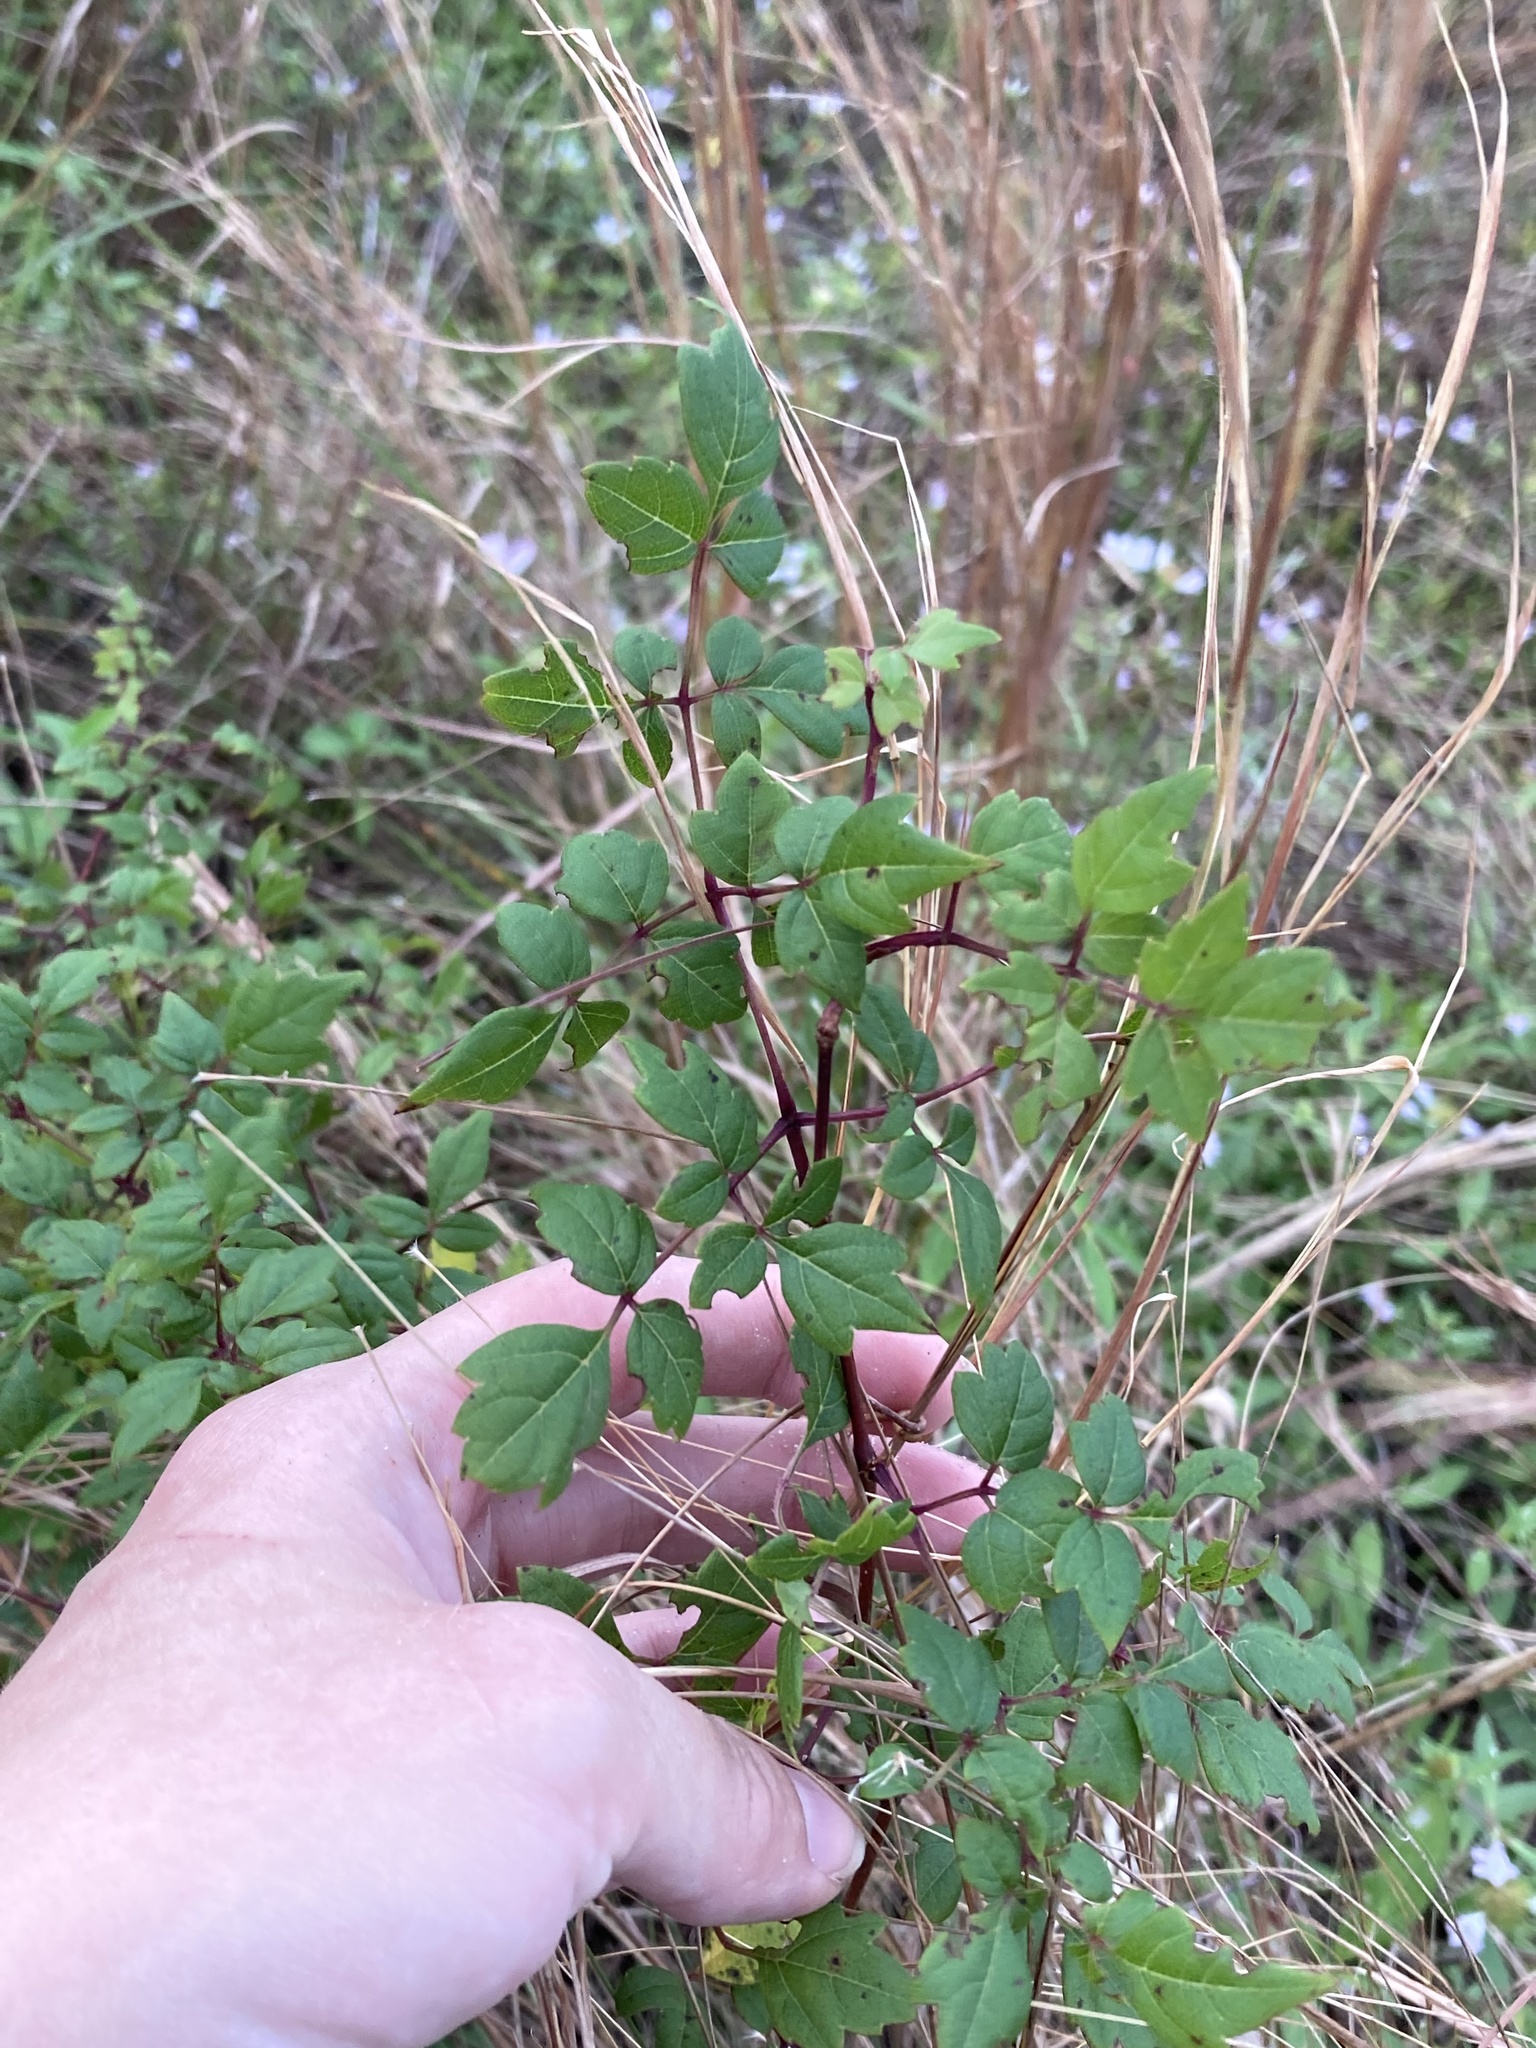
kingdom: Plantae
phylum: Tracheophyta
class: Magnoliopsida
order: Vitales
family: Vitaceae
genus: Nekemias
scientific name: Nekemias arborea
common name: Peppervine
